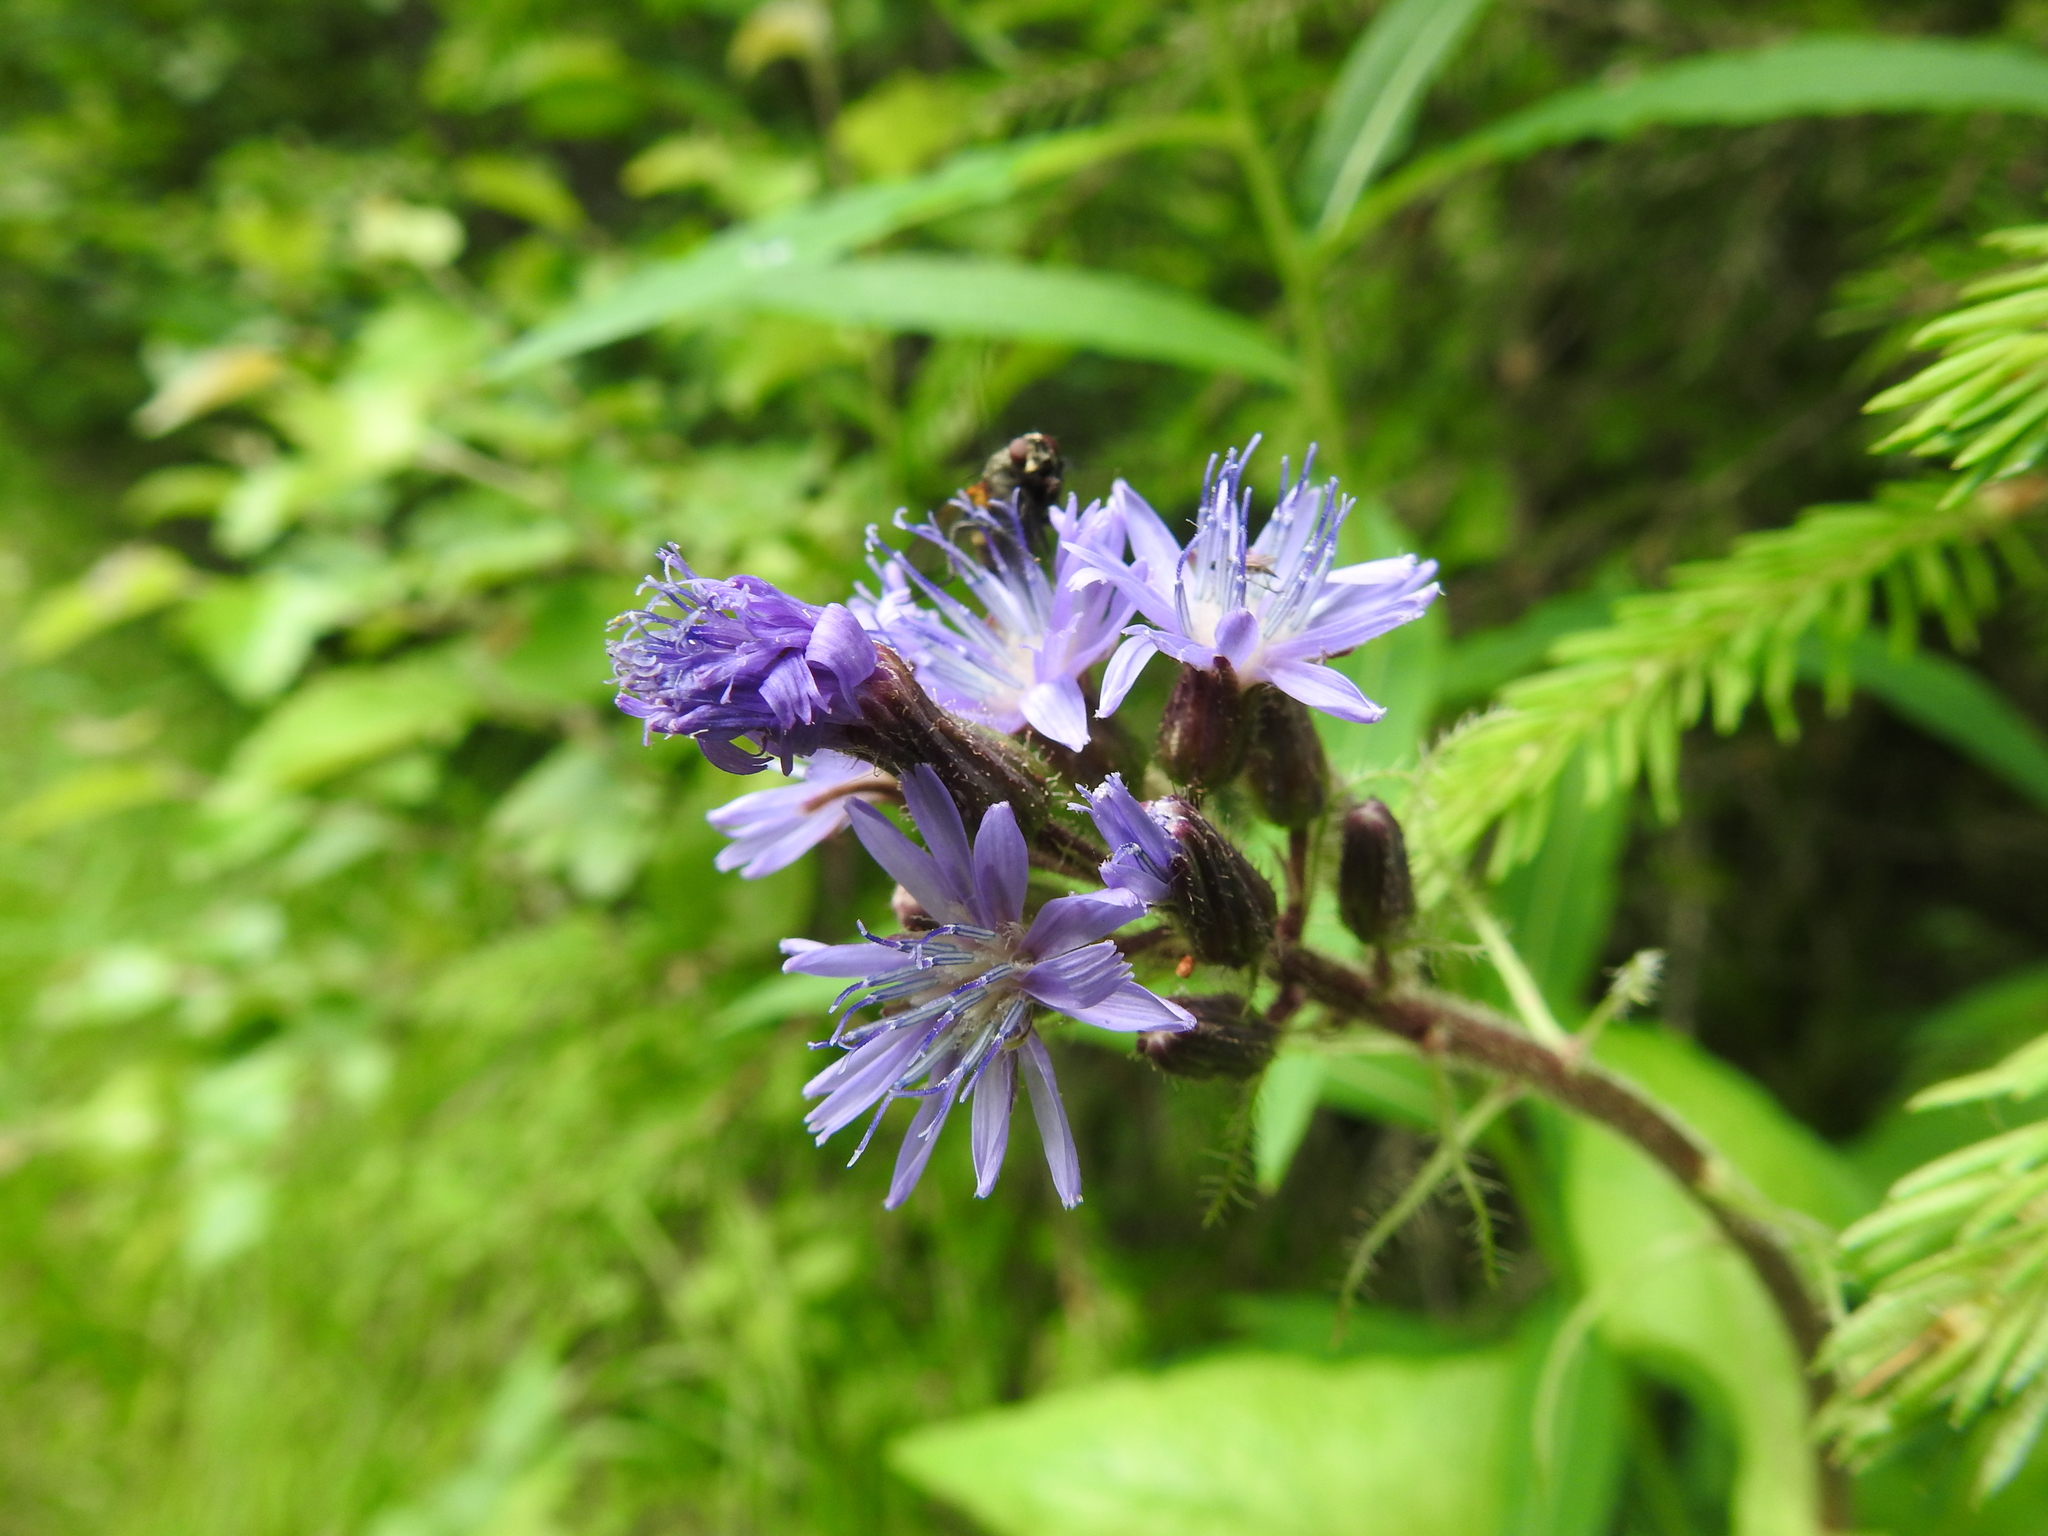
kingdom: Plantae
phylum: Tracheophyta
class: Magnoliopsida
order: Asterales
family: Asteraceae
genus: Cicerbita
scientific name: Cicerbita alpina
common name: Alpine blue-sow-thistle
